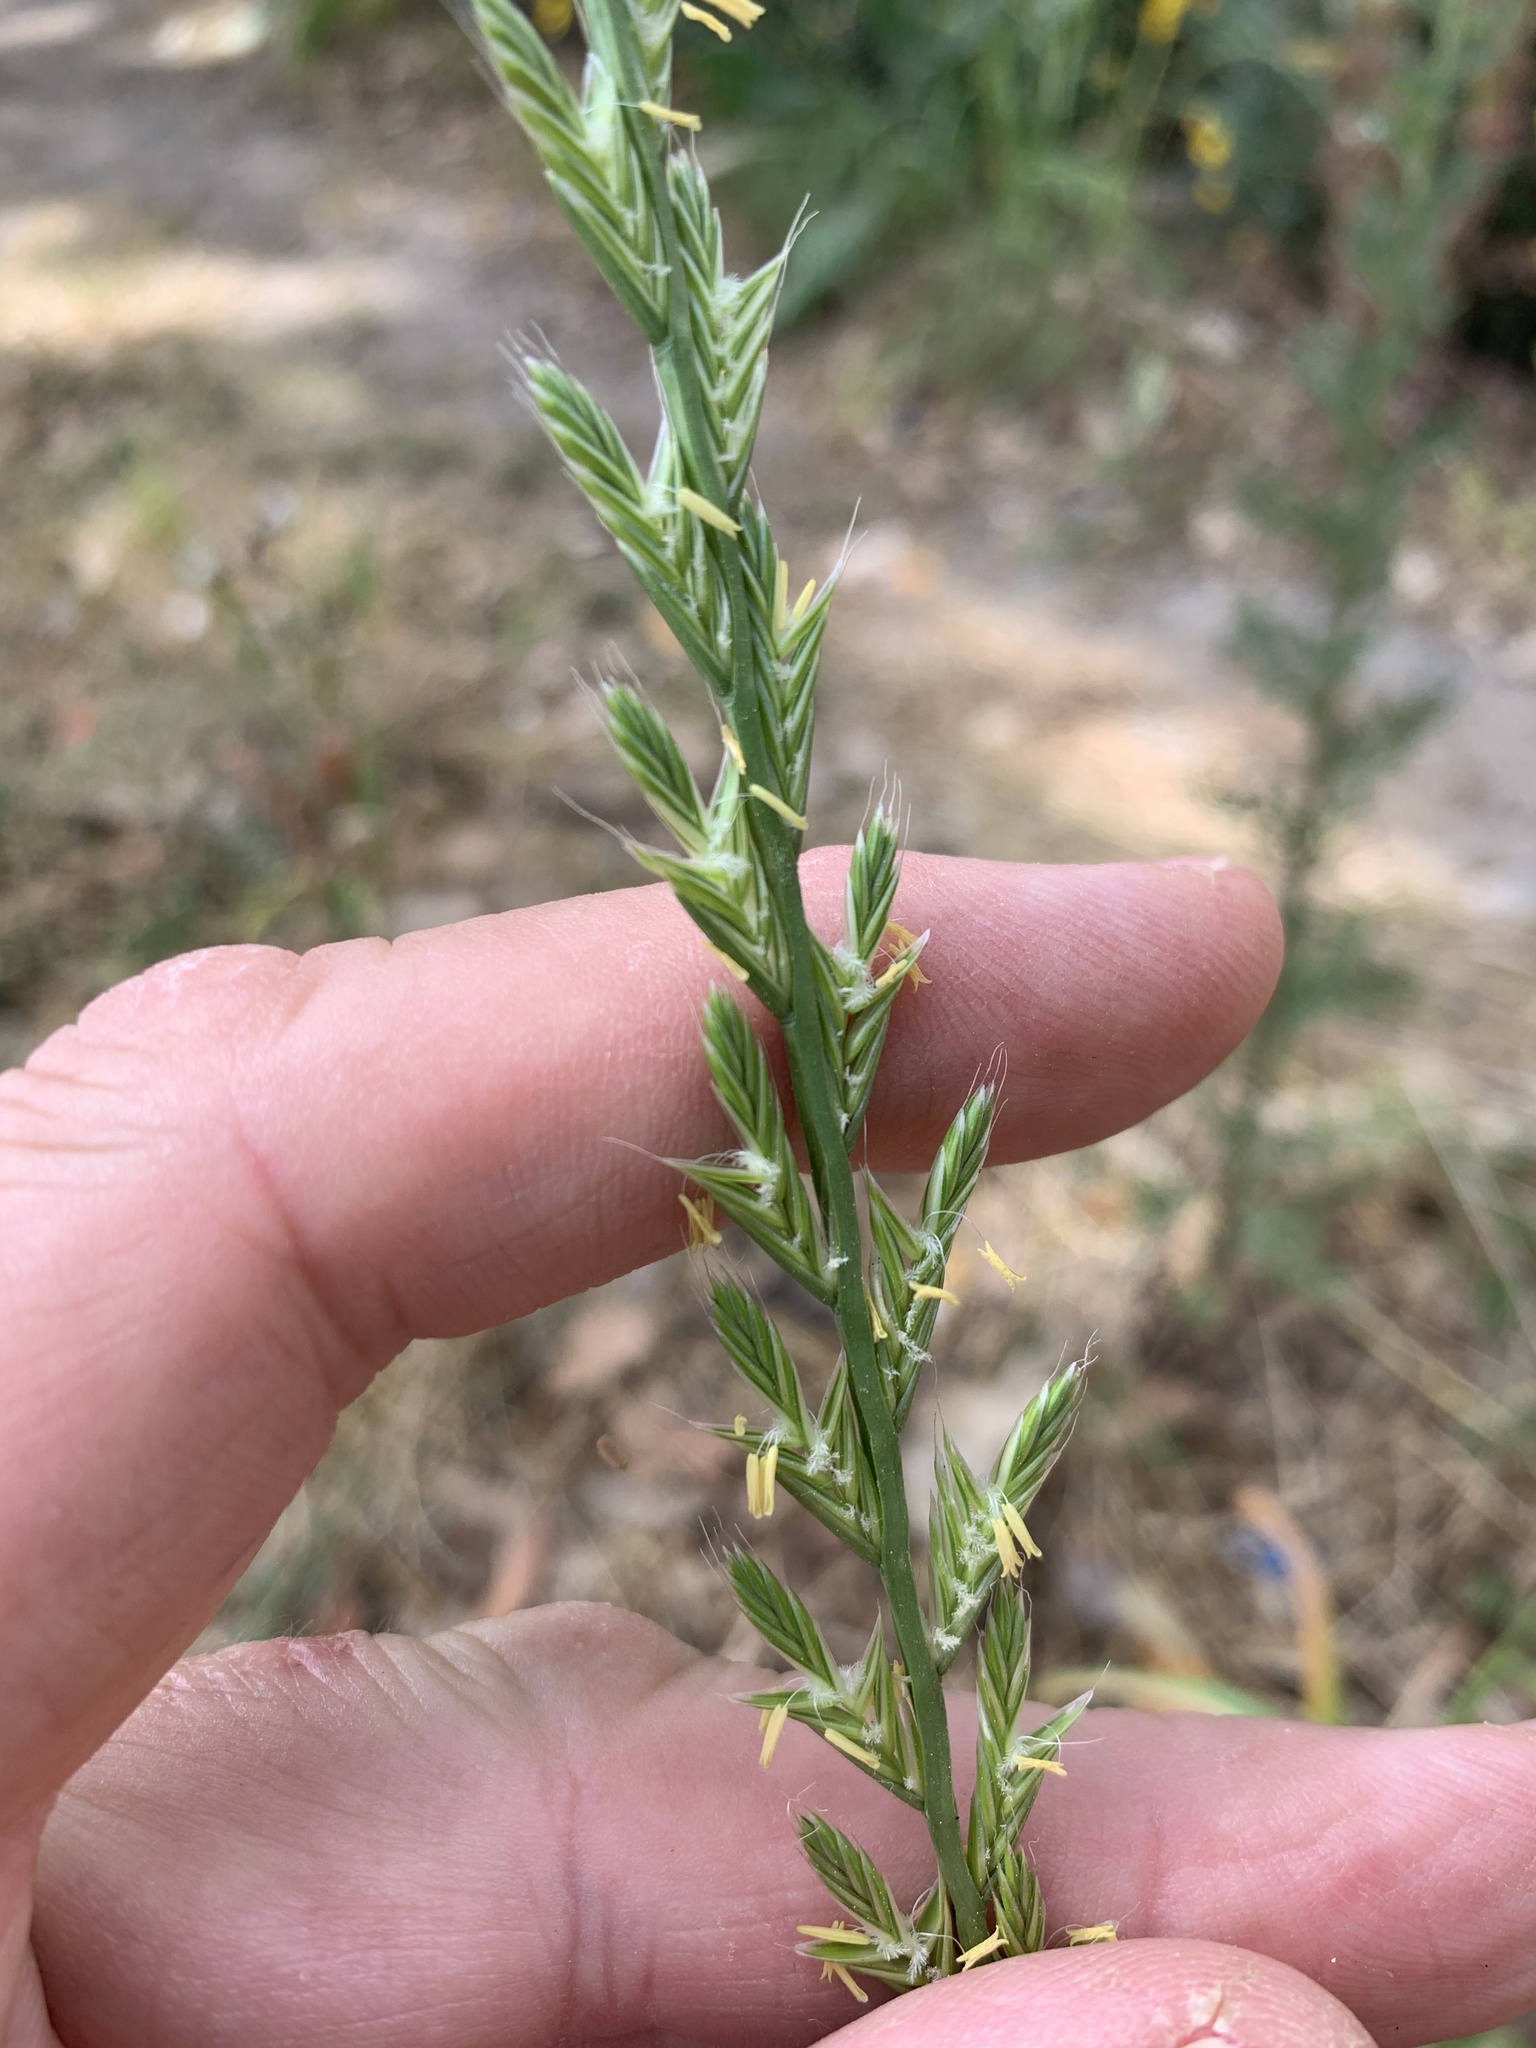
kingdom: Plantae
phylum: Tracheophyta
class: Liliopsida
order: Poales
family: Poaceae
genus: Lolium
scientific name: Lolium multiflorum
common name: Annual ryegrass
